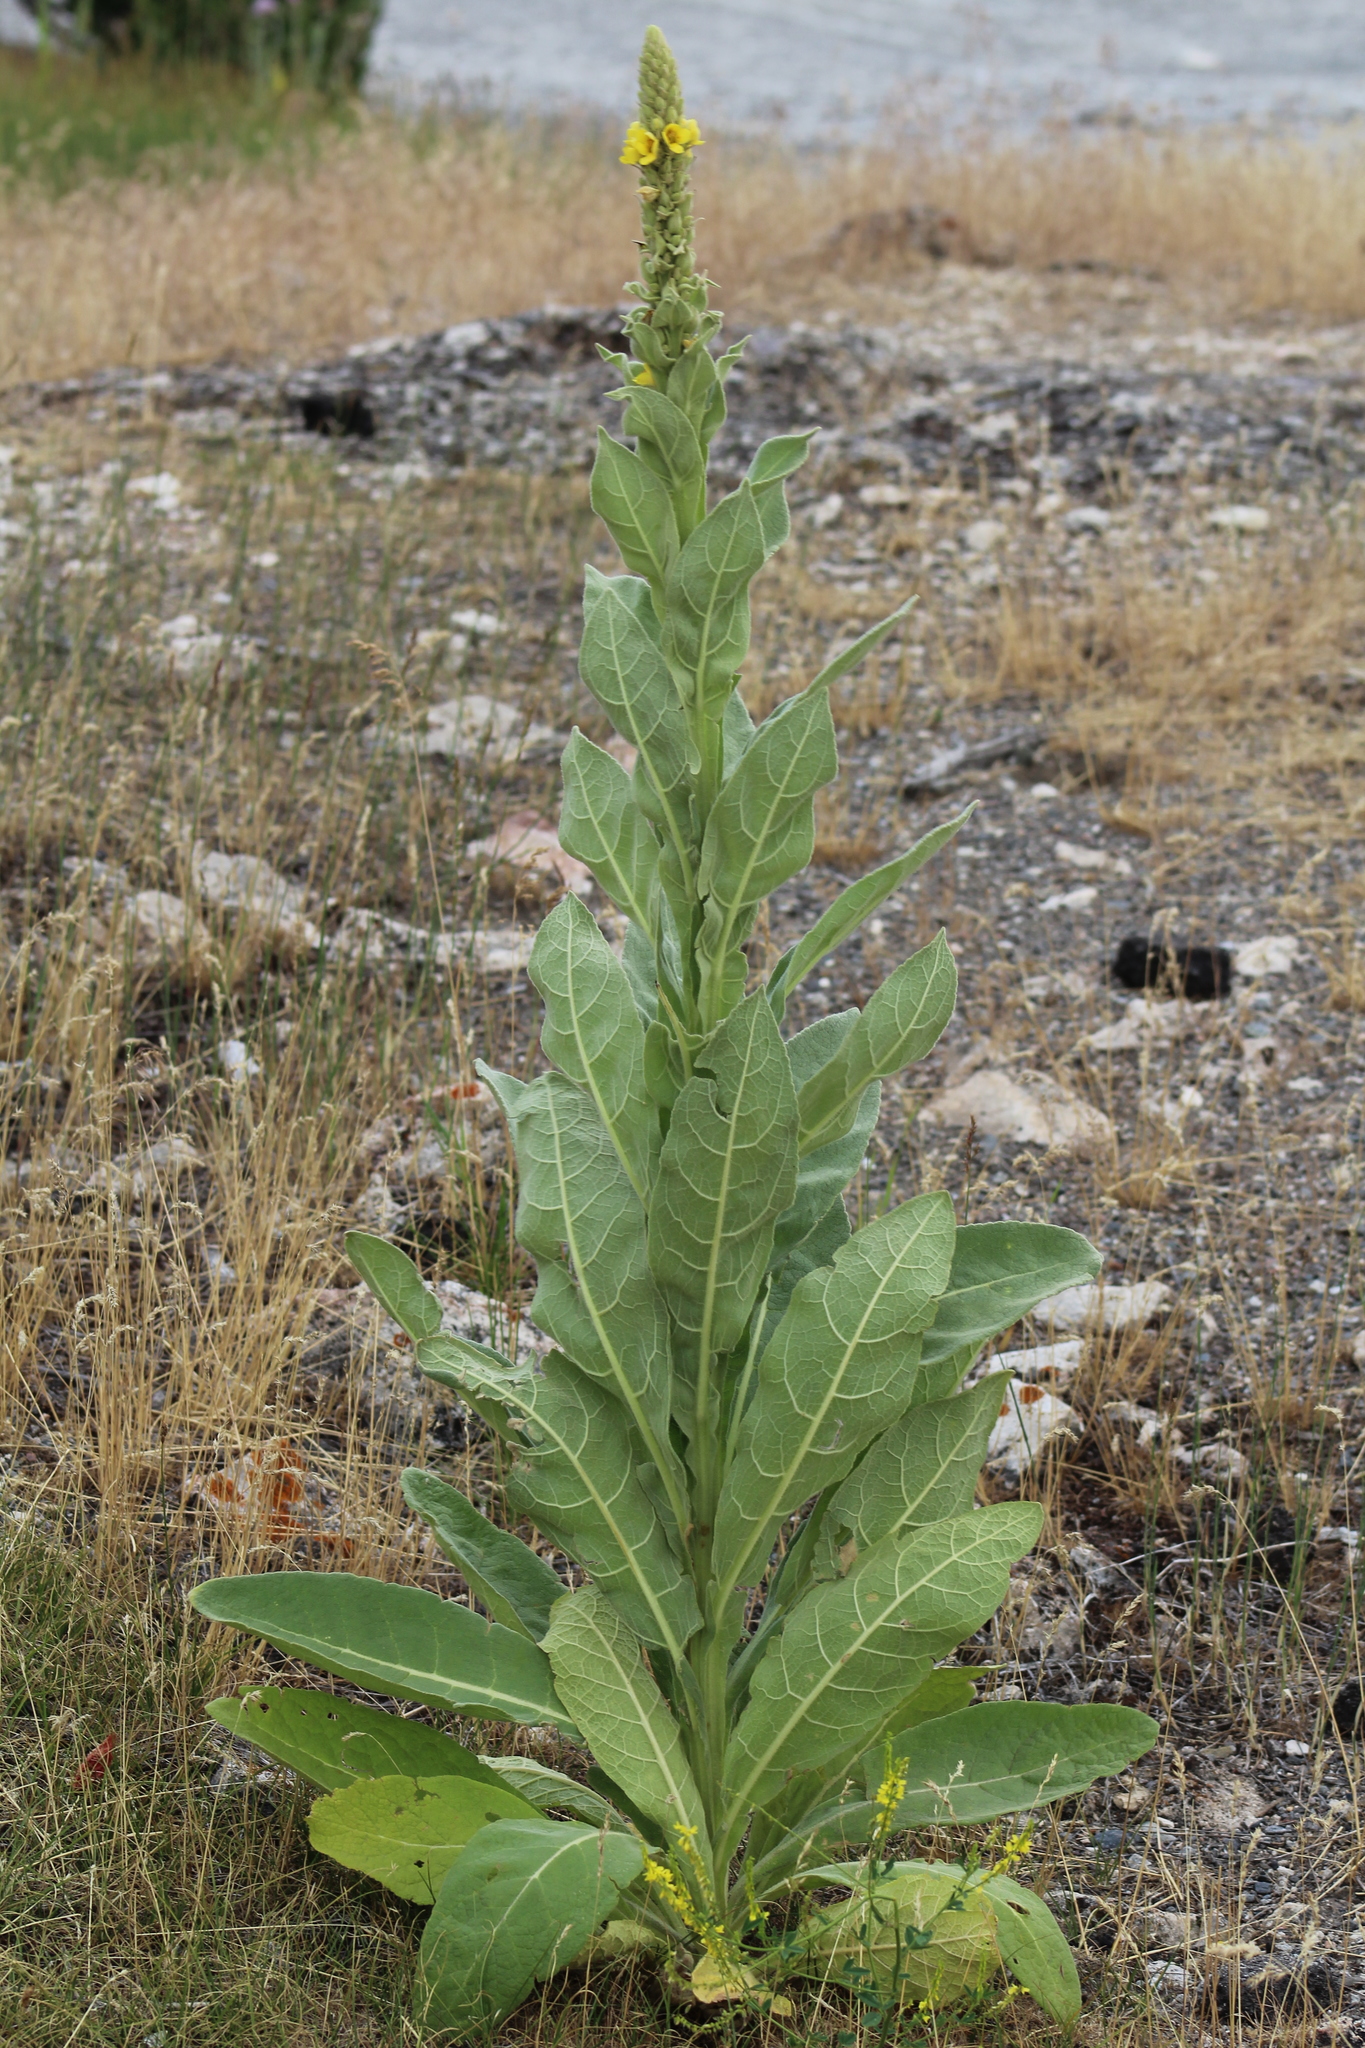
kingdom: Plantae
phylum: Tracheophyta
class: Magnoliopsida
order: Lamiales
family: Scrophulariaceae
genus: Verbascum
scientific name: Verbascum thapsus
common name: Common mullein
